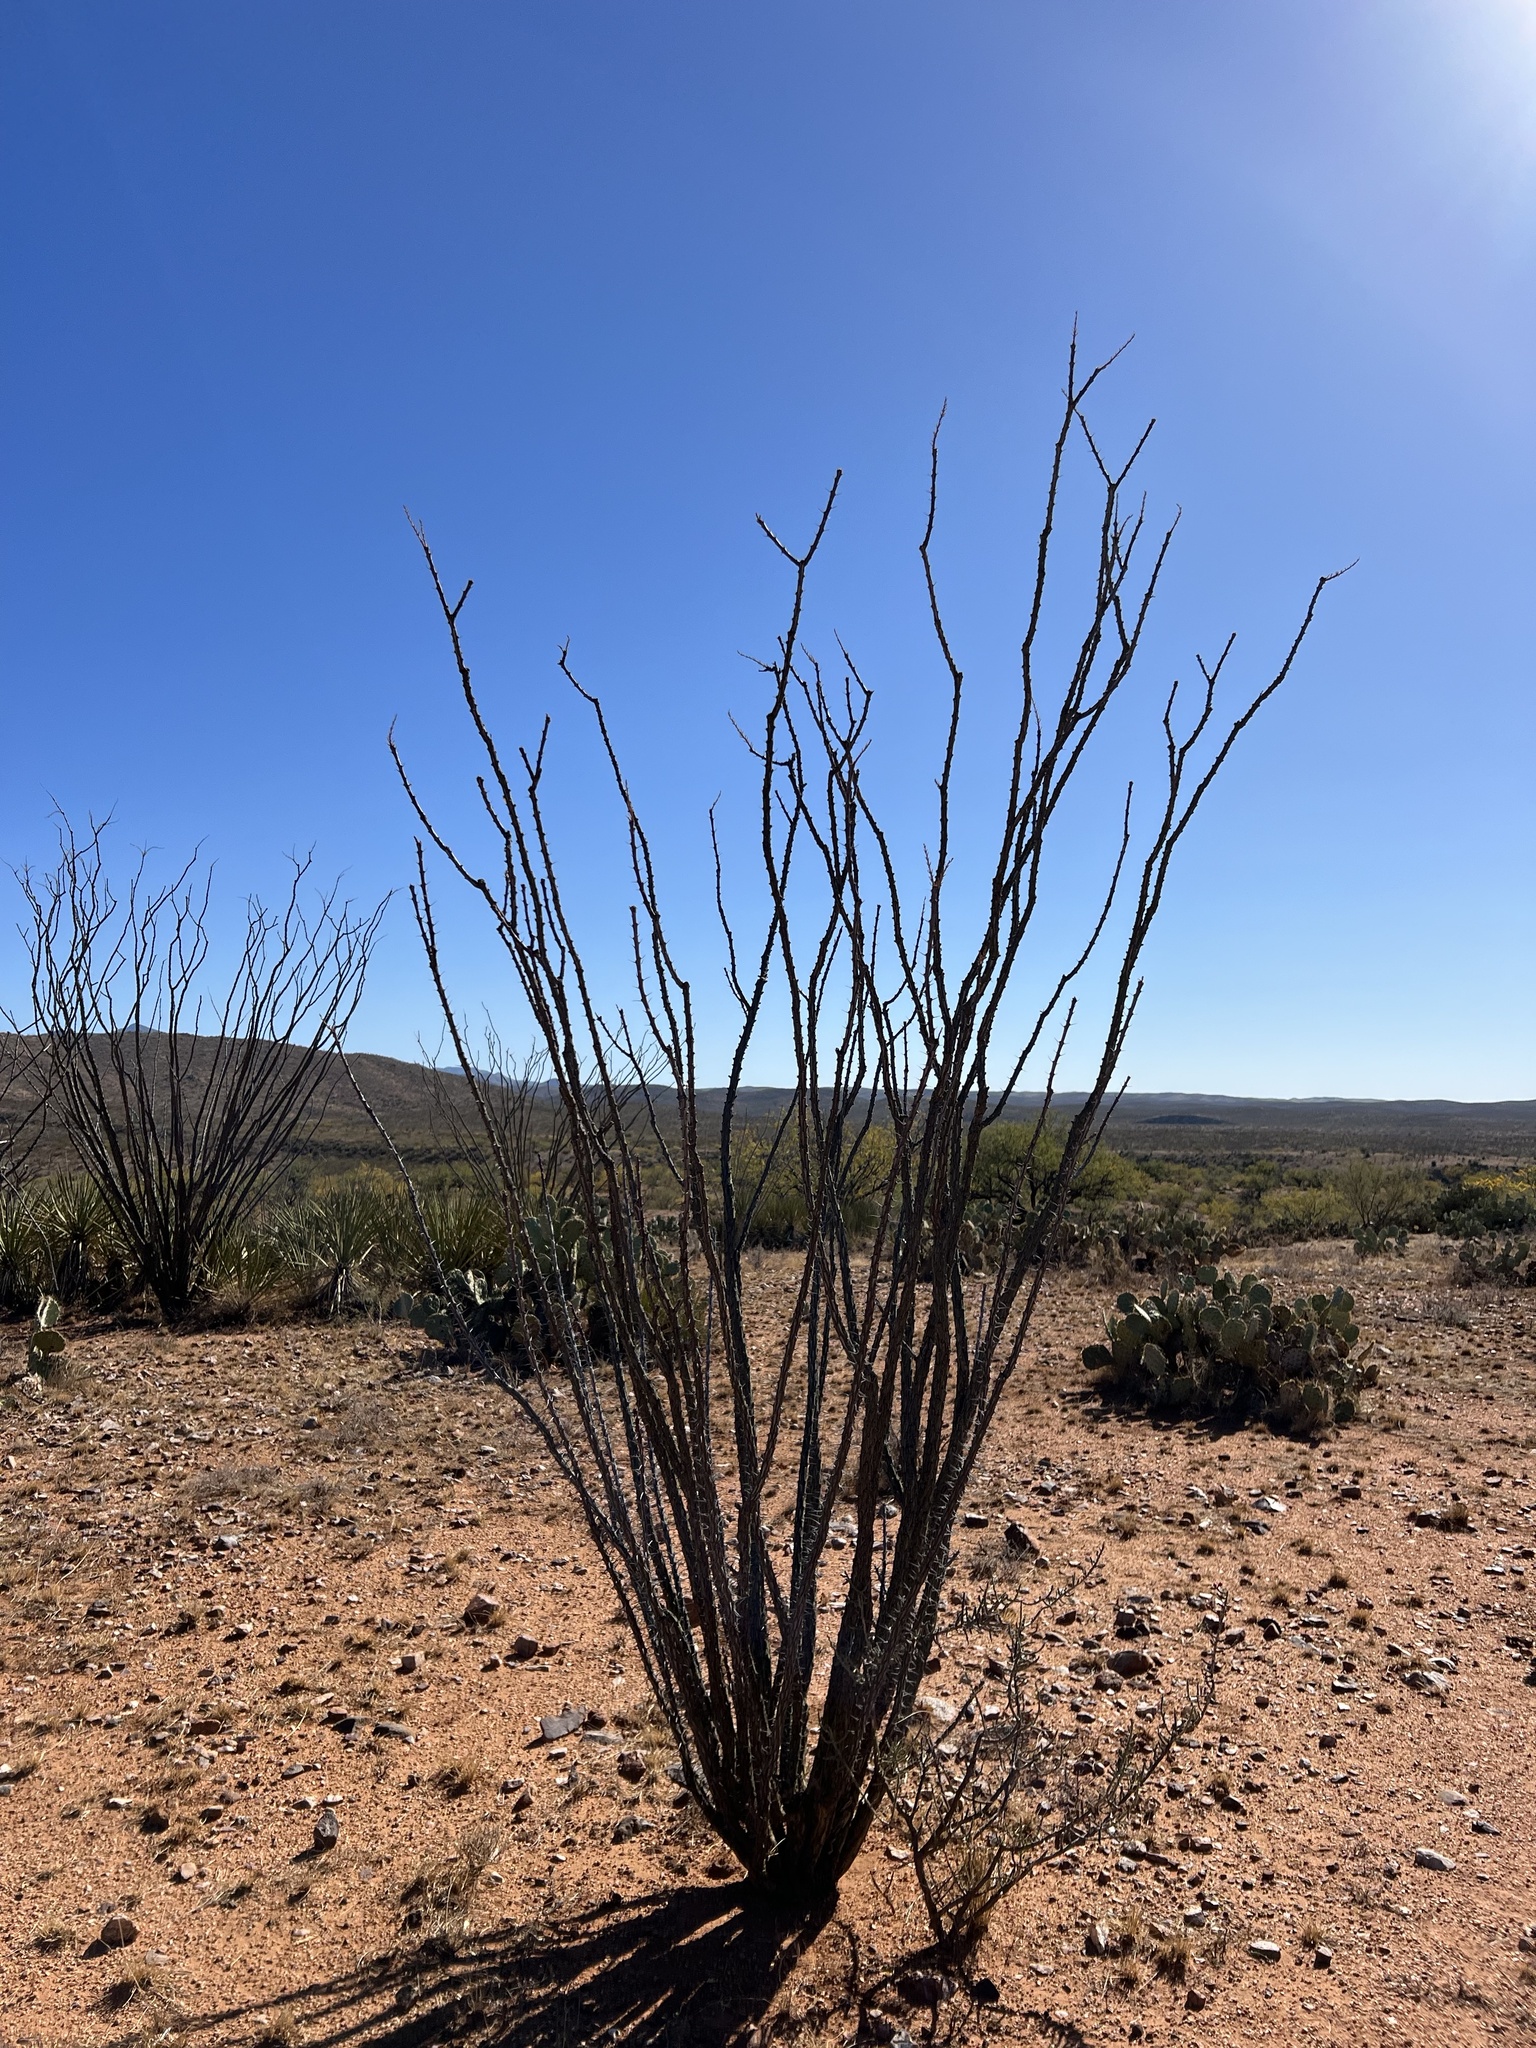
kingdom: Plantae
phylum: Tracheophyta
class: Magnoliopsida
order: Ericales
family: Fouquieriaceae
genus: Fouquieria
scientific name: Fouquieria splendens
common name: Vine-cactus
